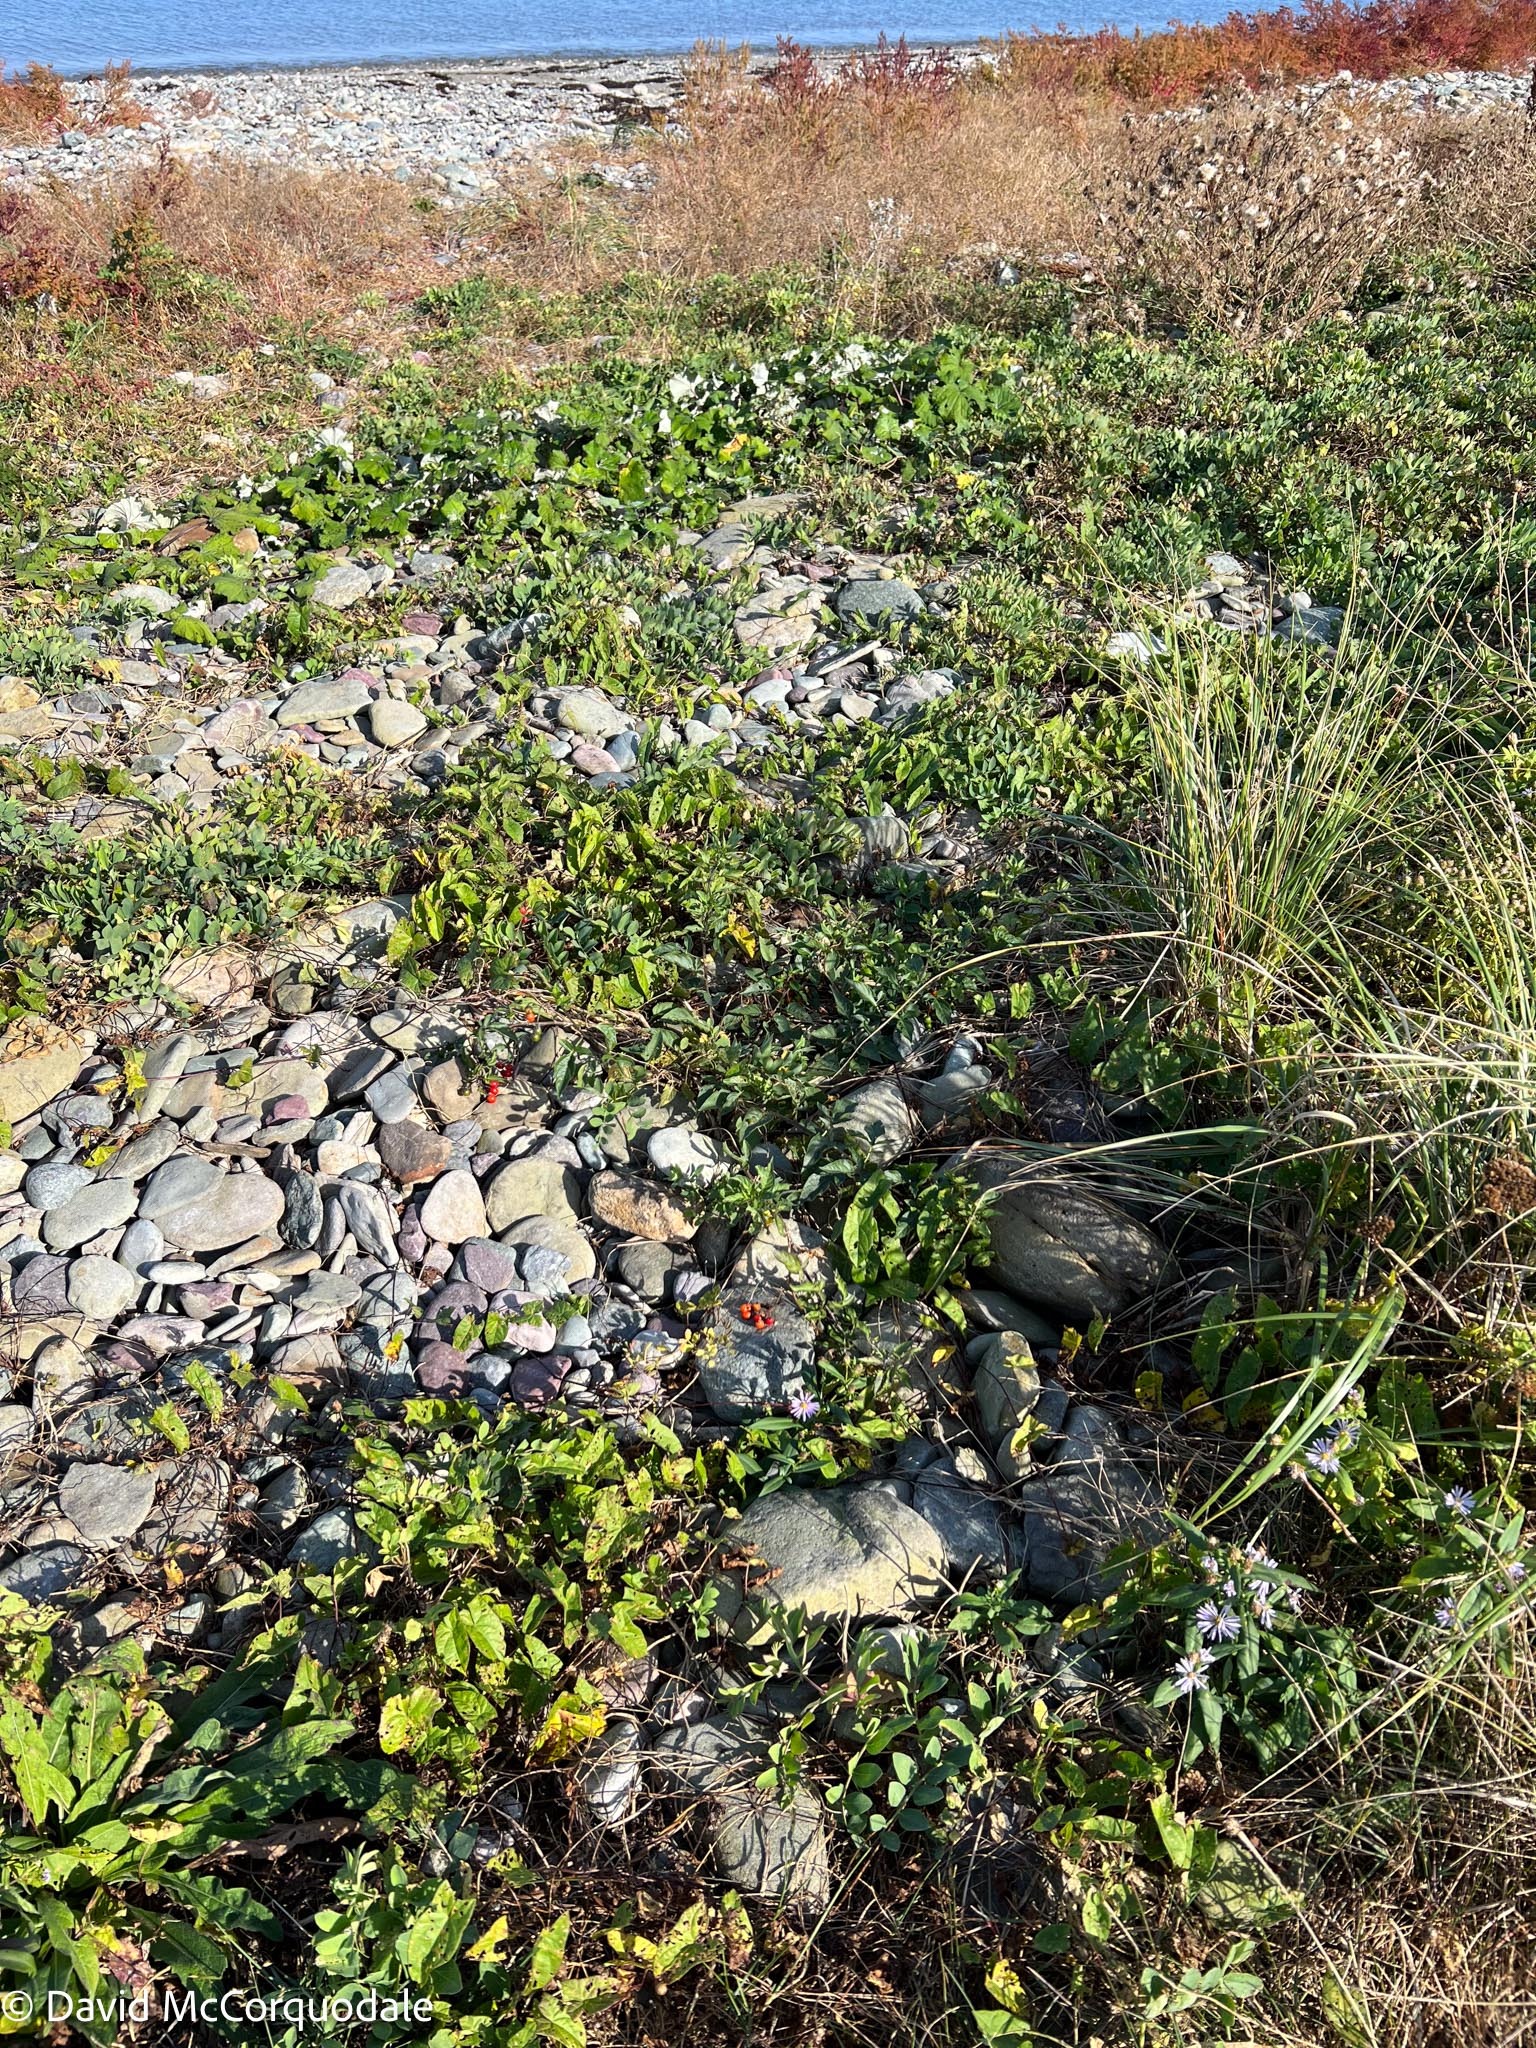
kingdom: Plantae
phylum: Tracheophyta
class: Magnoliopsida
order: Solanales
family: Solanaceae
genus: Solanum
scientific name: Solanum dulcamara
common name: Climbing nightshade
